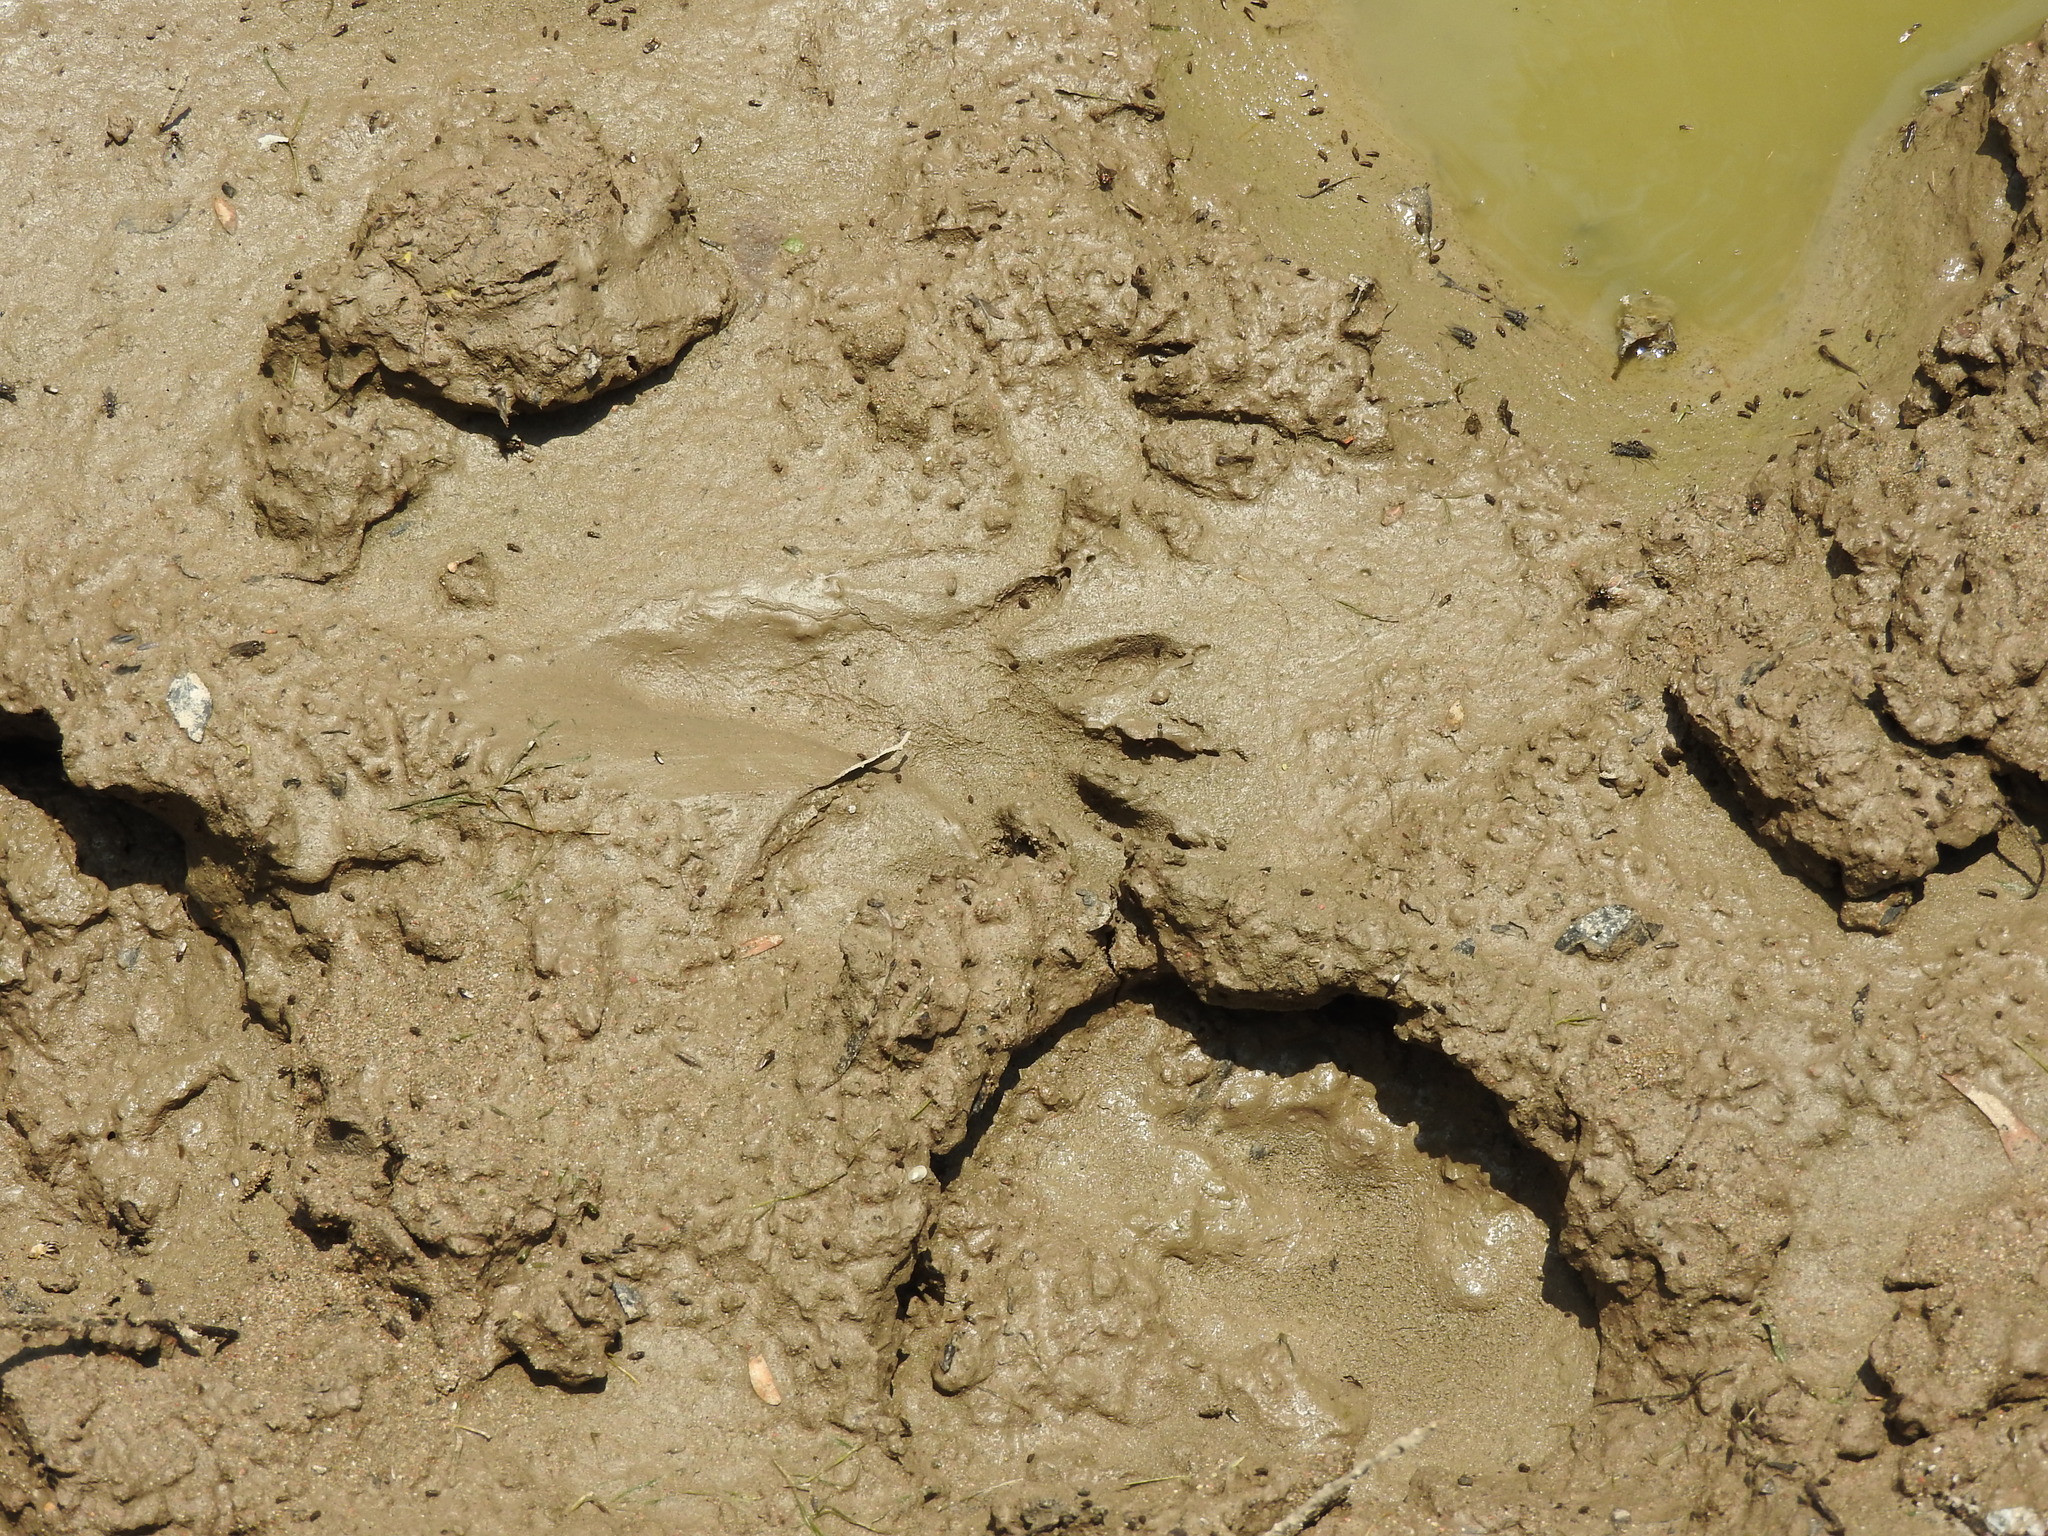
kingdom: Animalia
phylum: Chordata
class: Mammalia
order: Carnivora
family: Procyonidae
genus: Procyon
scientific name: Procyon lotor
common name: Raccoon
